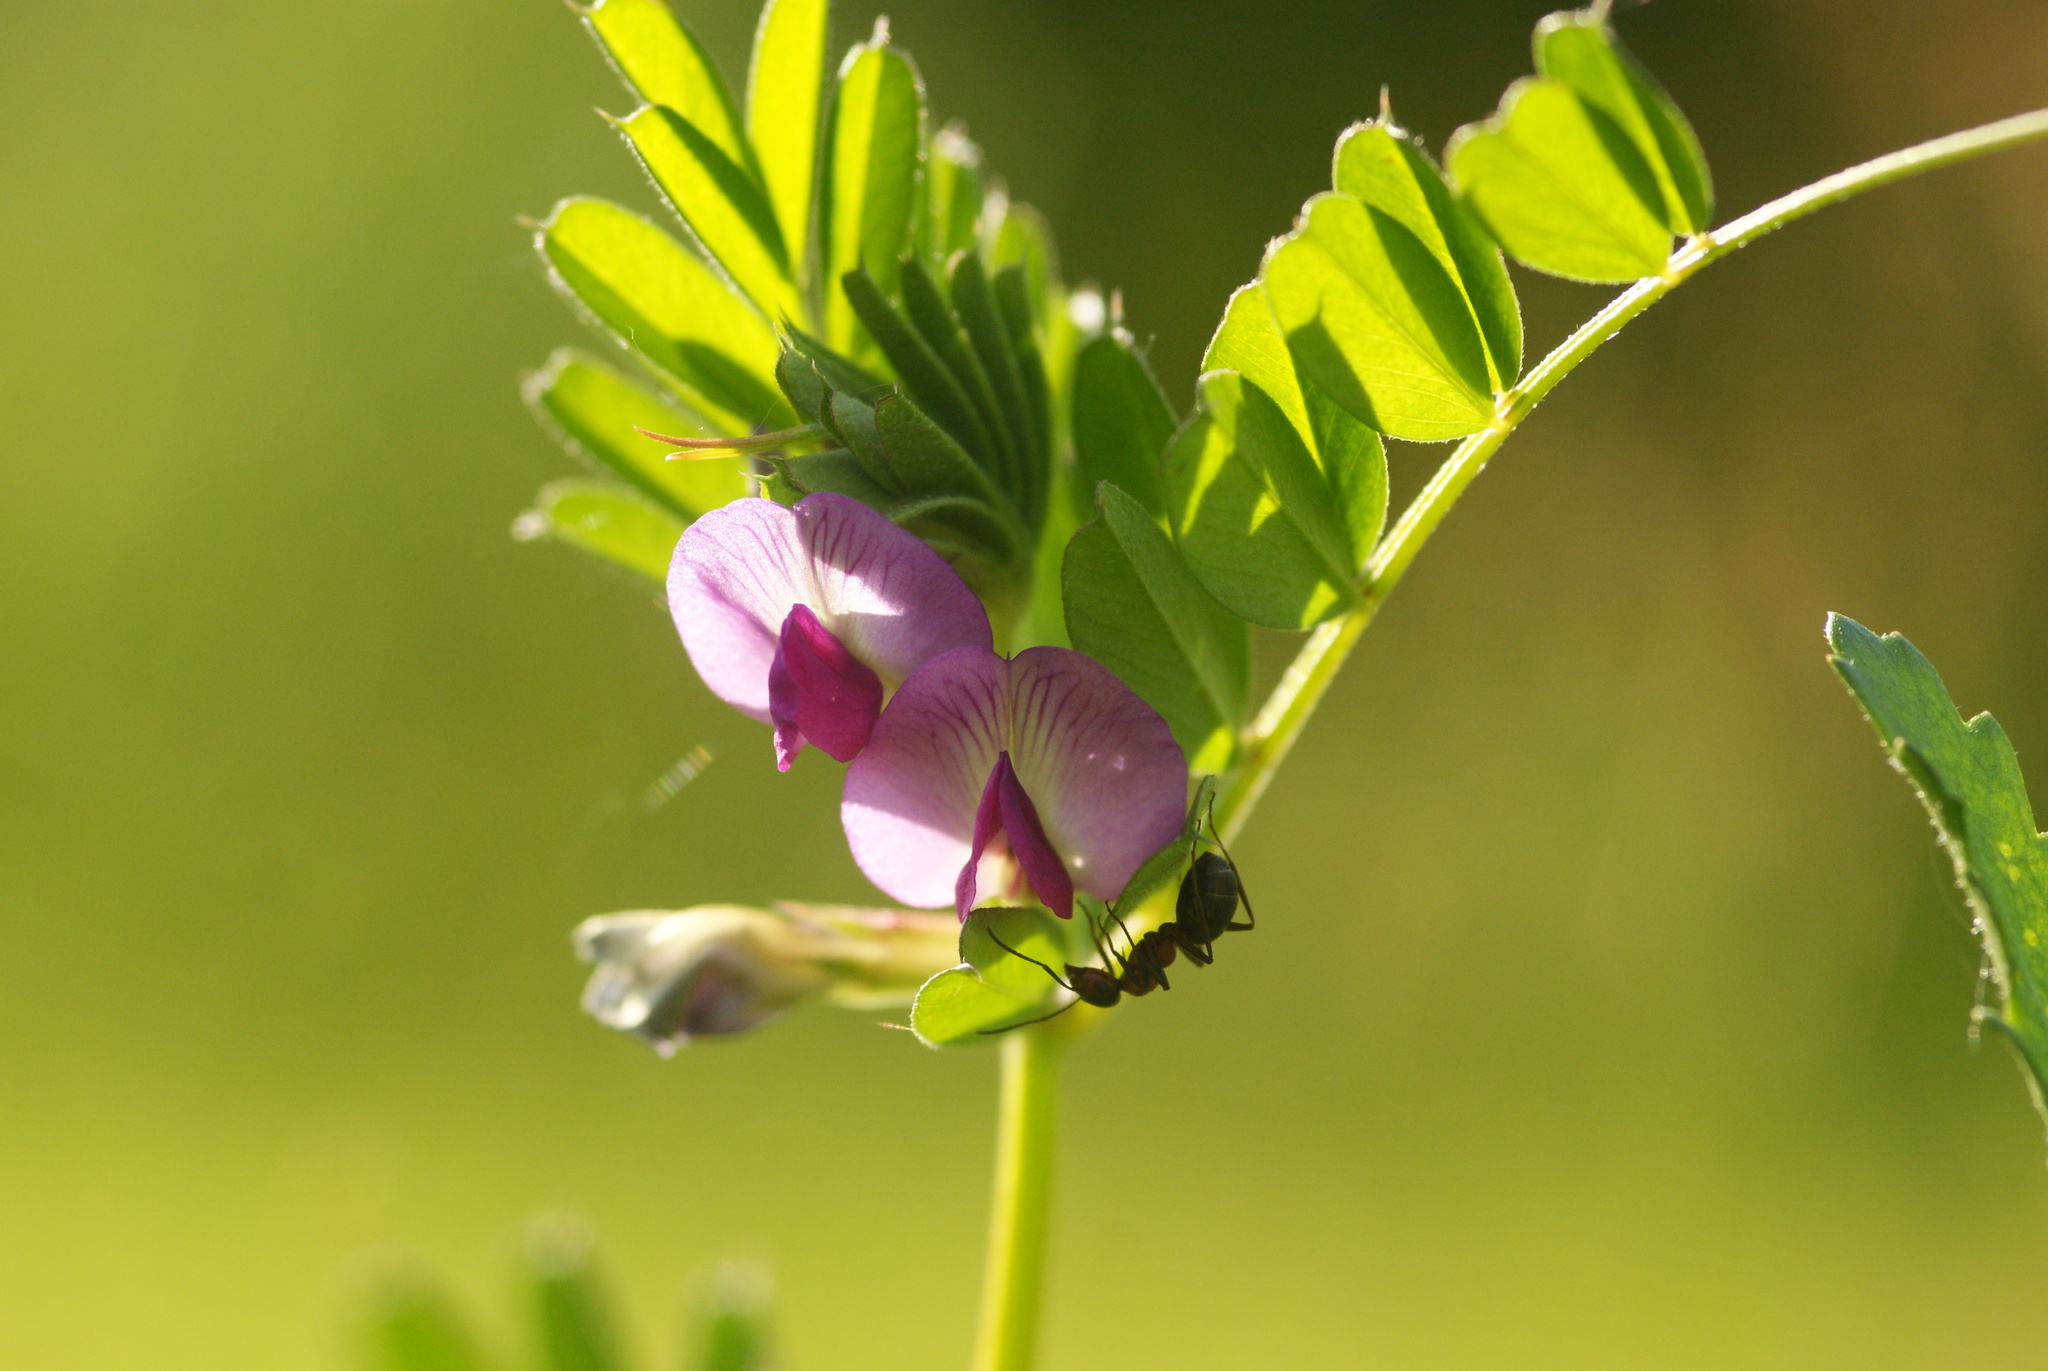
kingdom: Plantae
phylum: Tracheophyta
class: Magnoliopsida
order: Fabales
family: Fabaceae
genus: Vicia
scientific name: Vicia sativa
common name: Garden vetch
